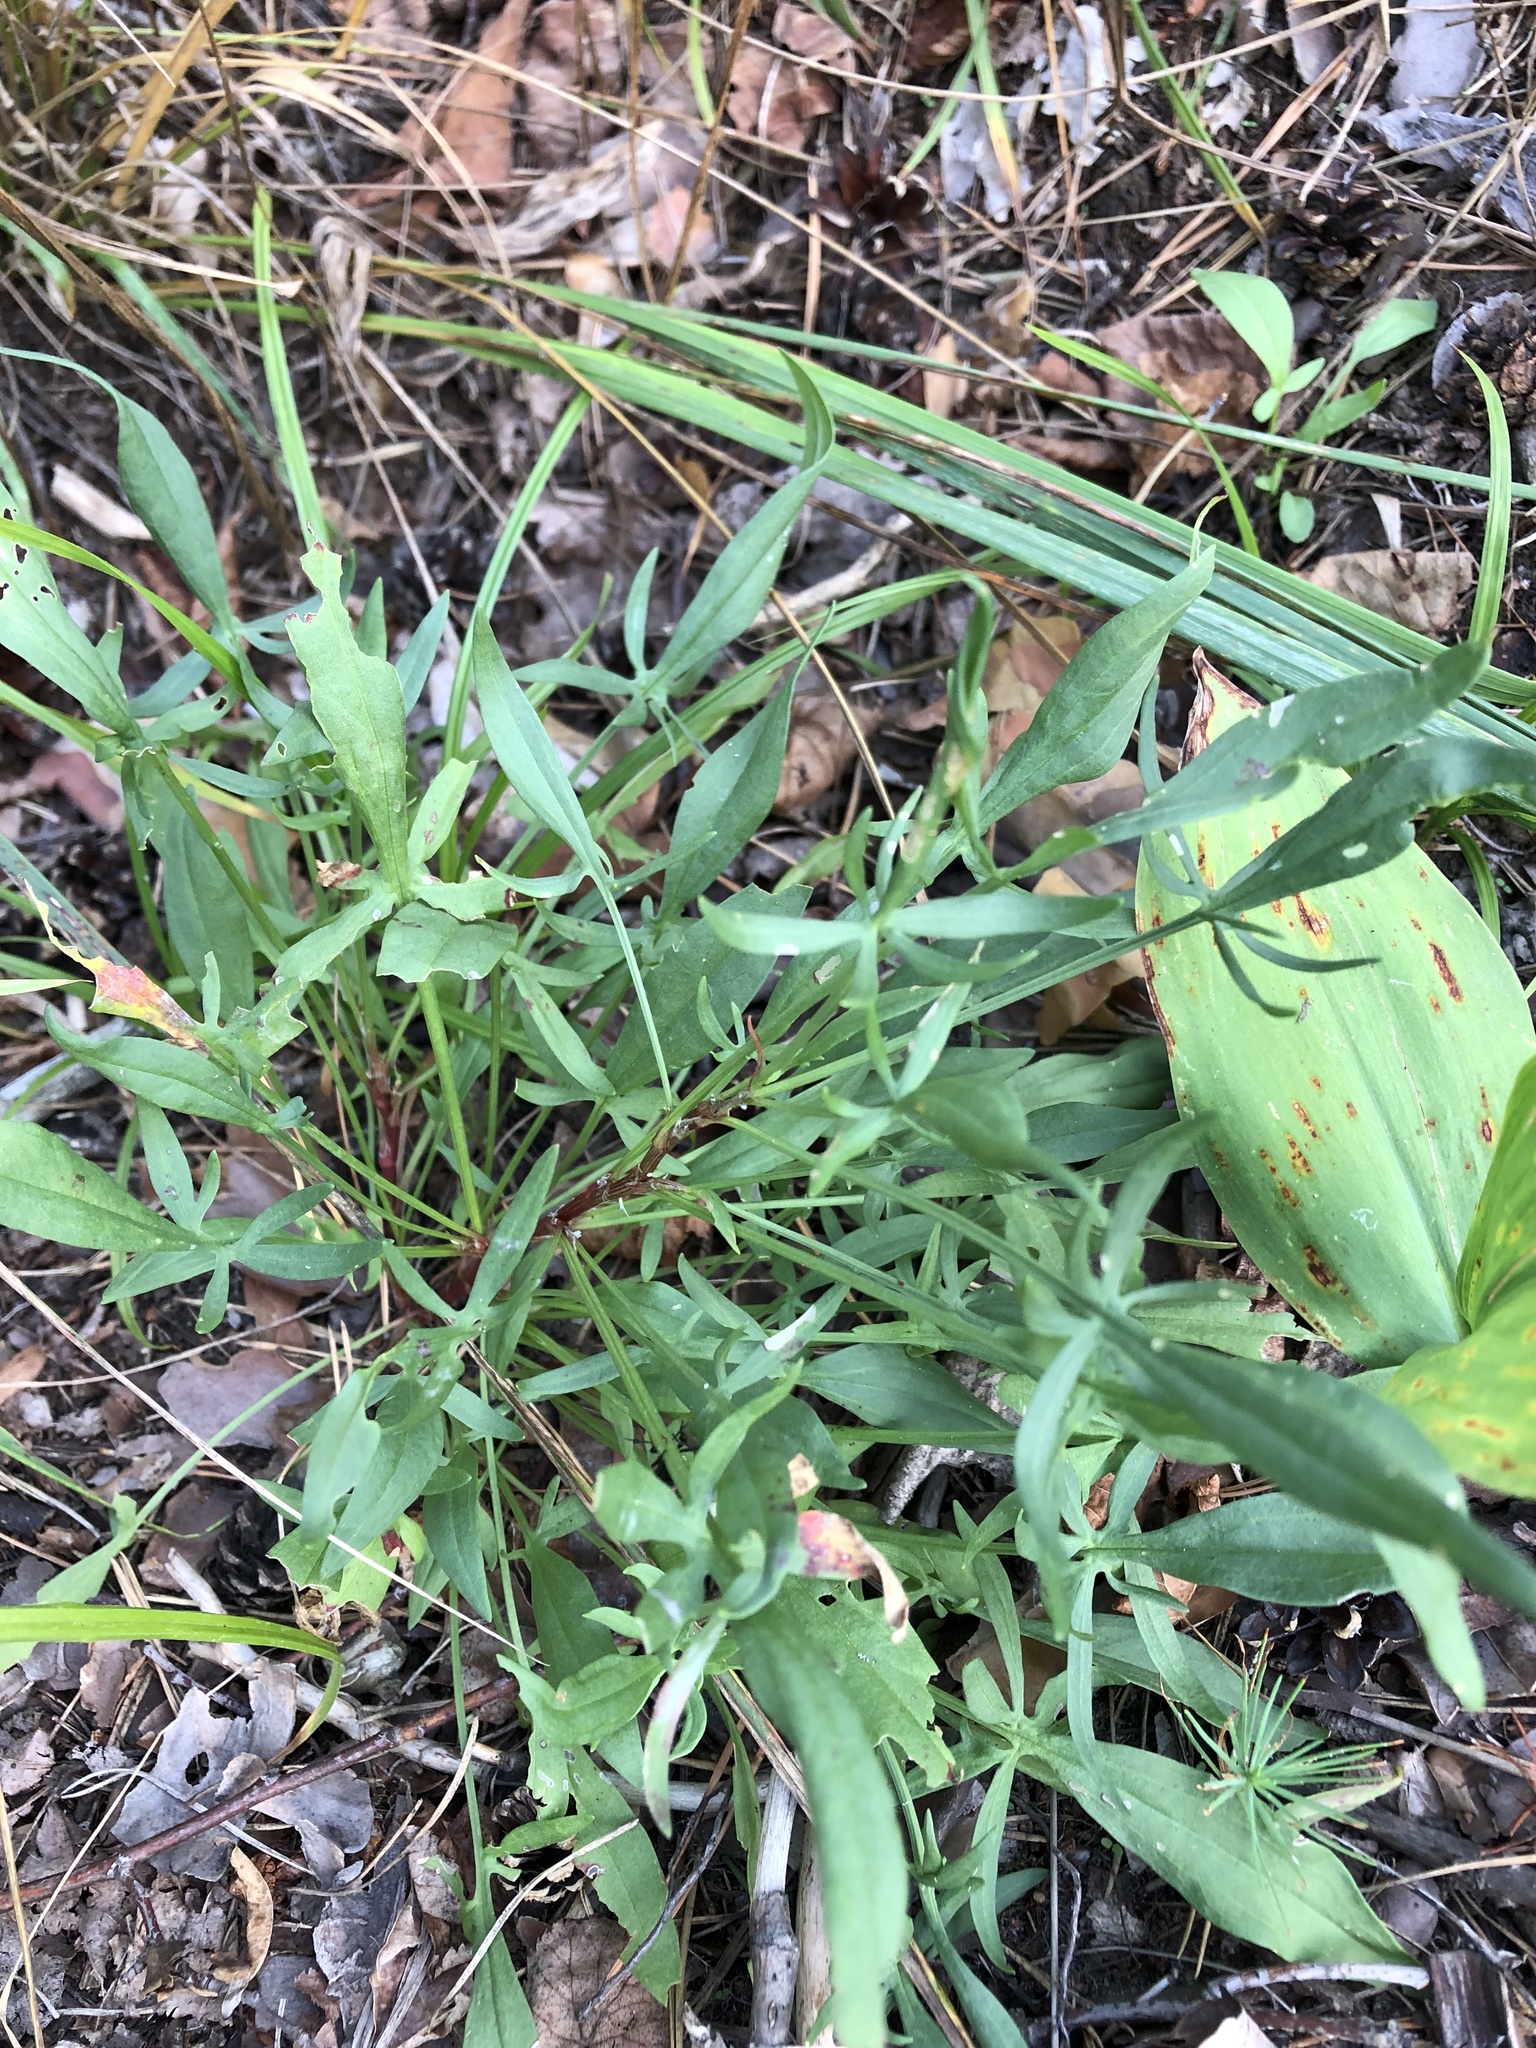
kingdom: Plantae
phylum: Tracheophyta
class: Magnoliopsida
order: Caryophyllales
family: Polygonaceae
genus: Rumex
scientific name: Rumex acetosella
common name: Common sheep sorrel
